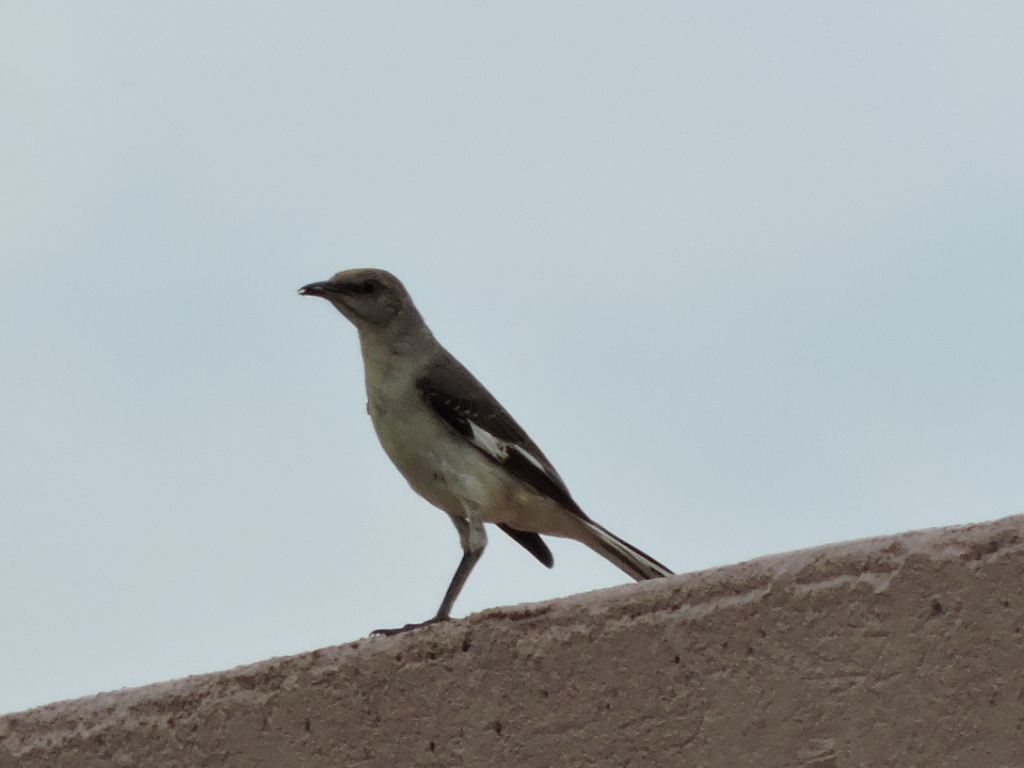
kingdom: Animalia
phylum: Chordata
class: Aves
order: Passeriformes
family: Mimidae
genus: Mimus
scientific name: Mimus polyglottos
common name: Northern mockingbird
